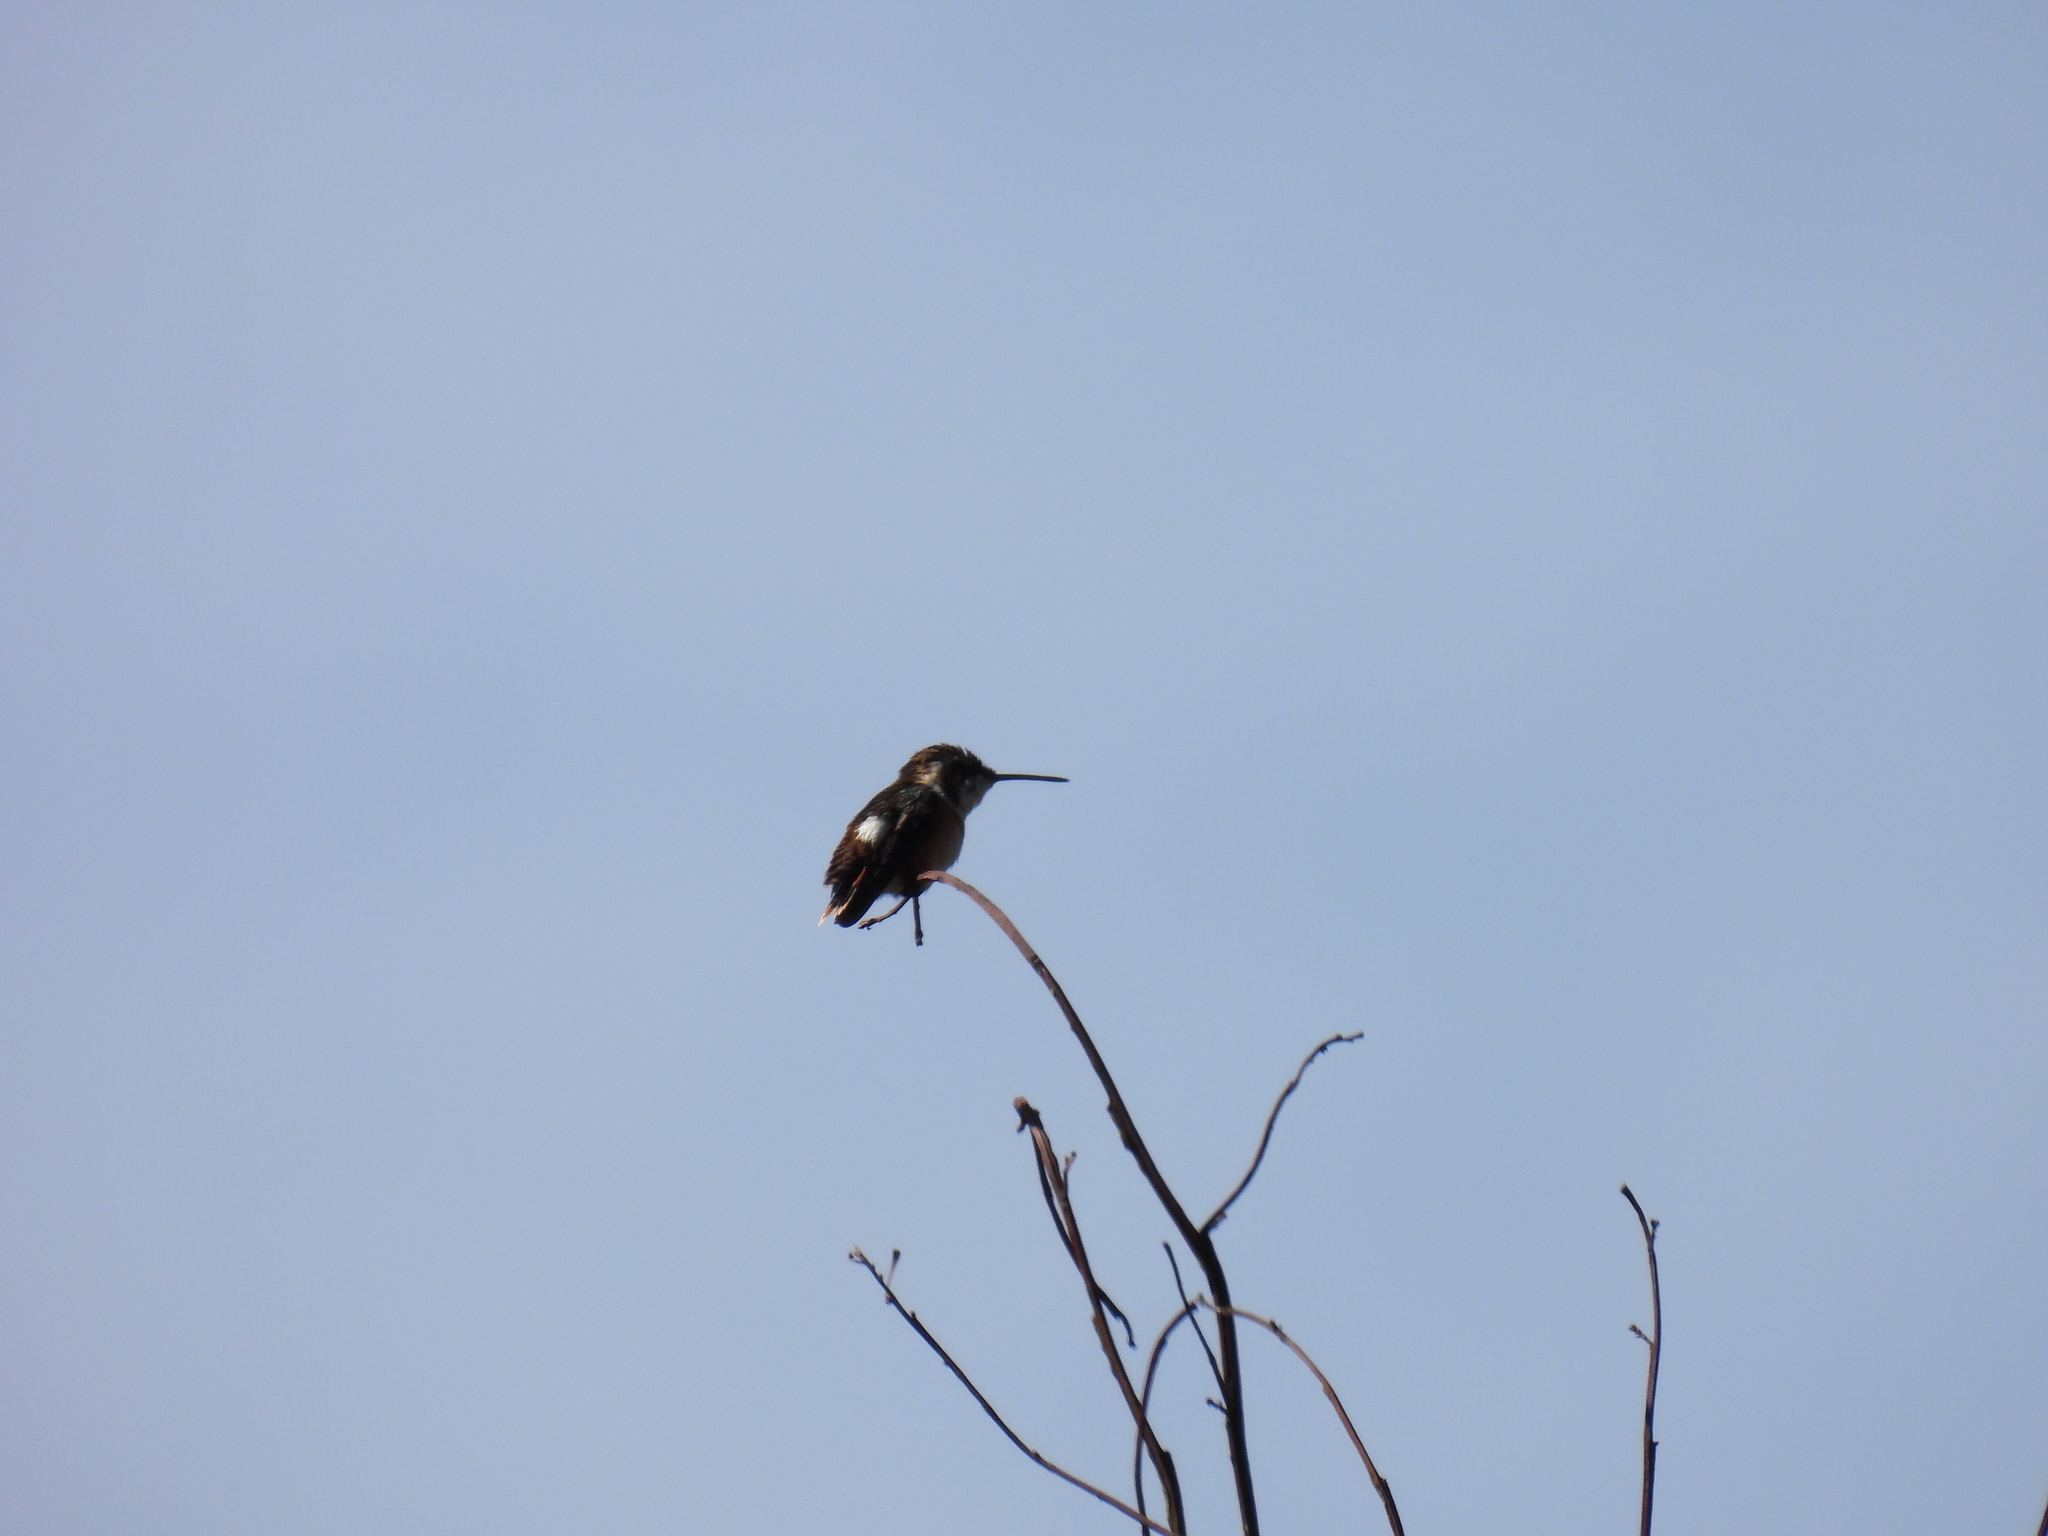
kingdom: Animalia
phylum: Chordata
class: Aves
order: Apodiformes
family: Trochilidae
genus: Chaetocercus
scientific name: Chaetocercus mulsant
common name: White-bellied woodstar
